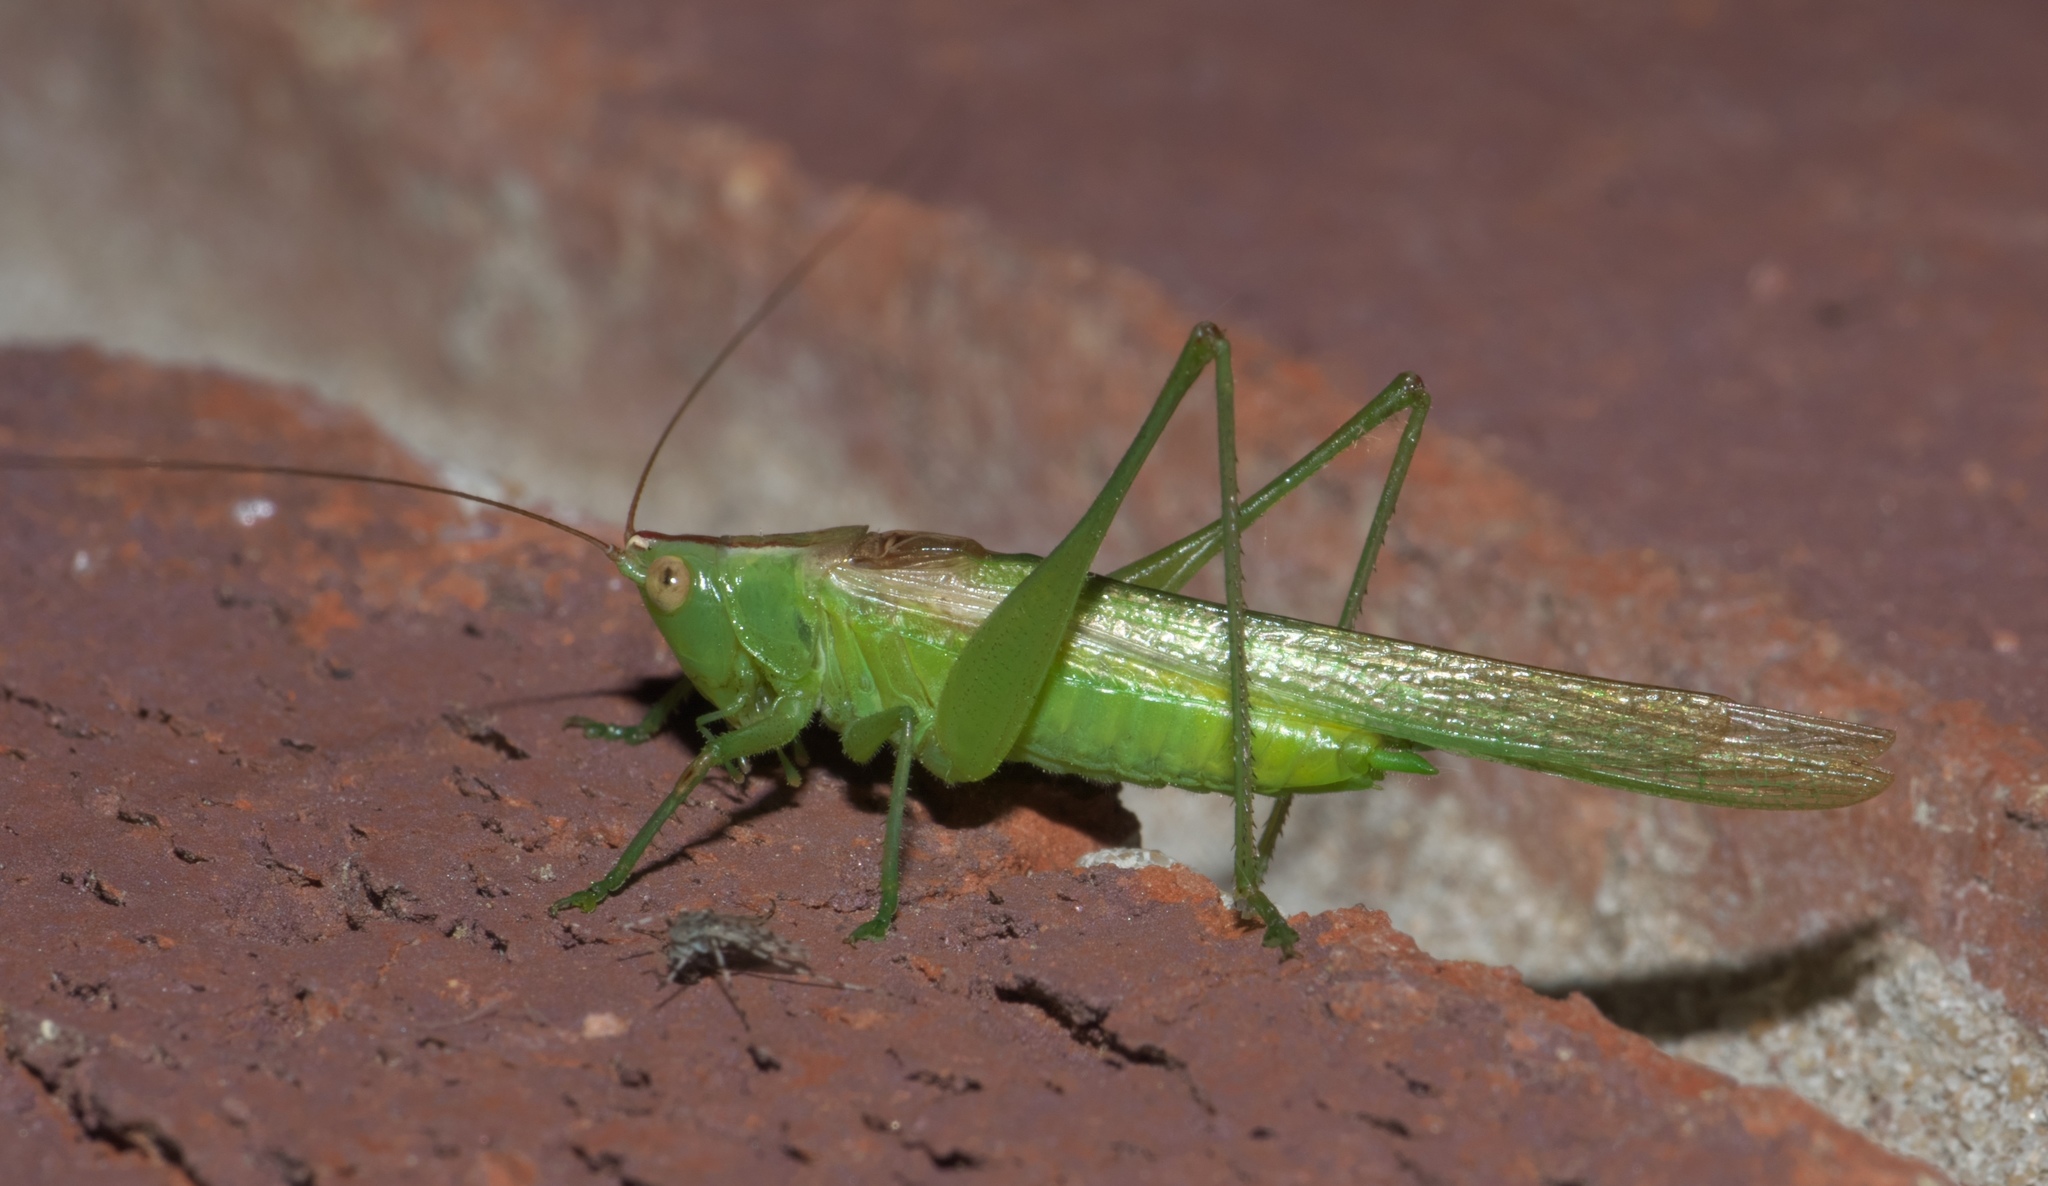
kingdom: Animalia
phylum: Arthropoda
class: Insecta
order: Orthoptera
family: Tettigoniidae
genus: Conocephalus
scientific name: Conocephalus fasciatus
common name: Slender meadow katydid
